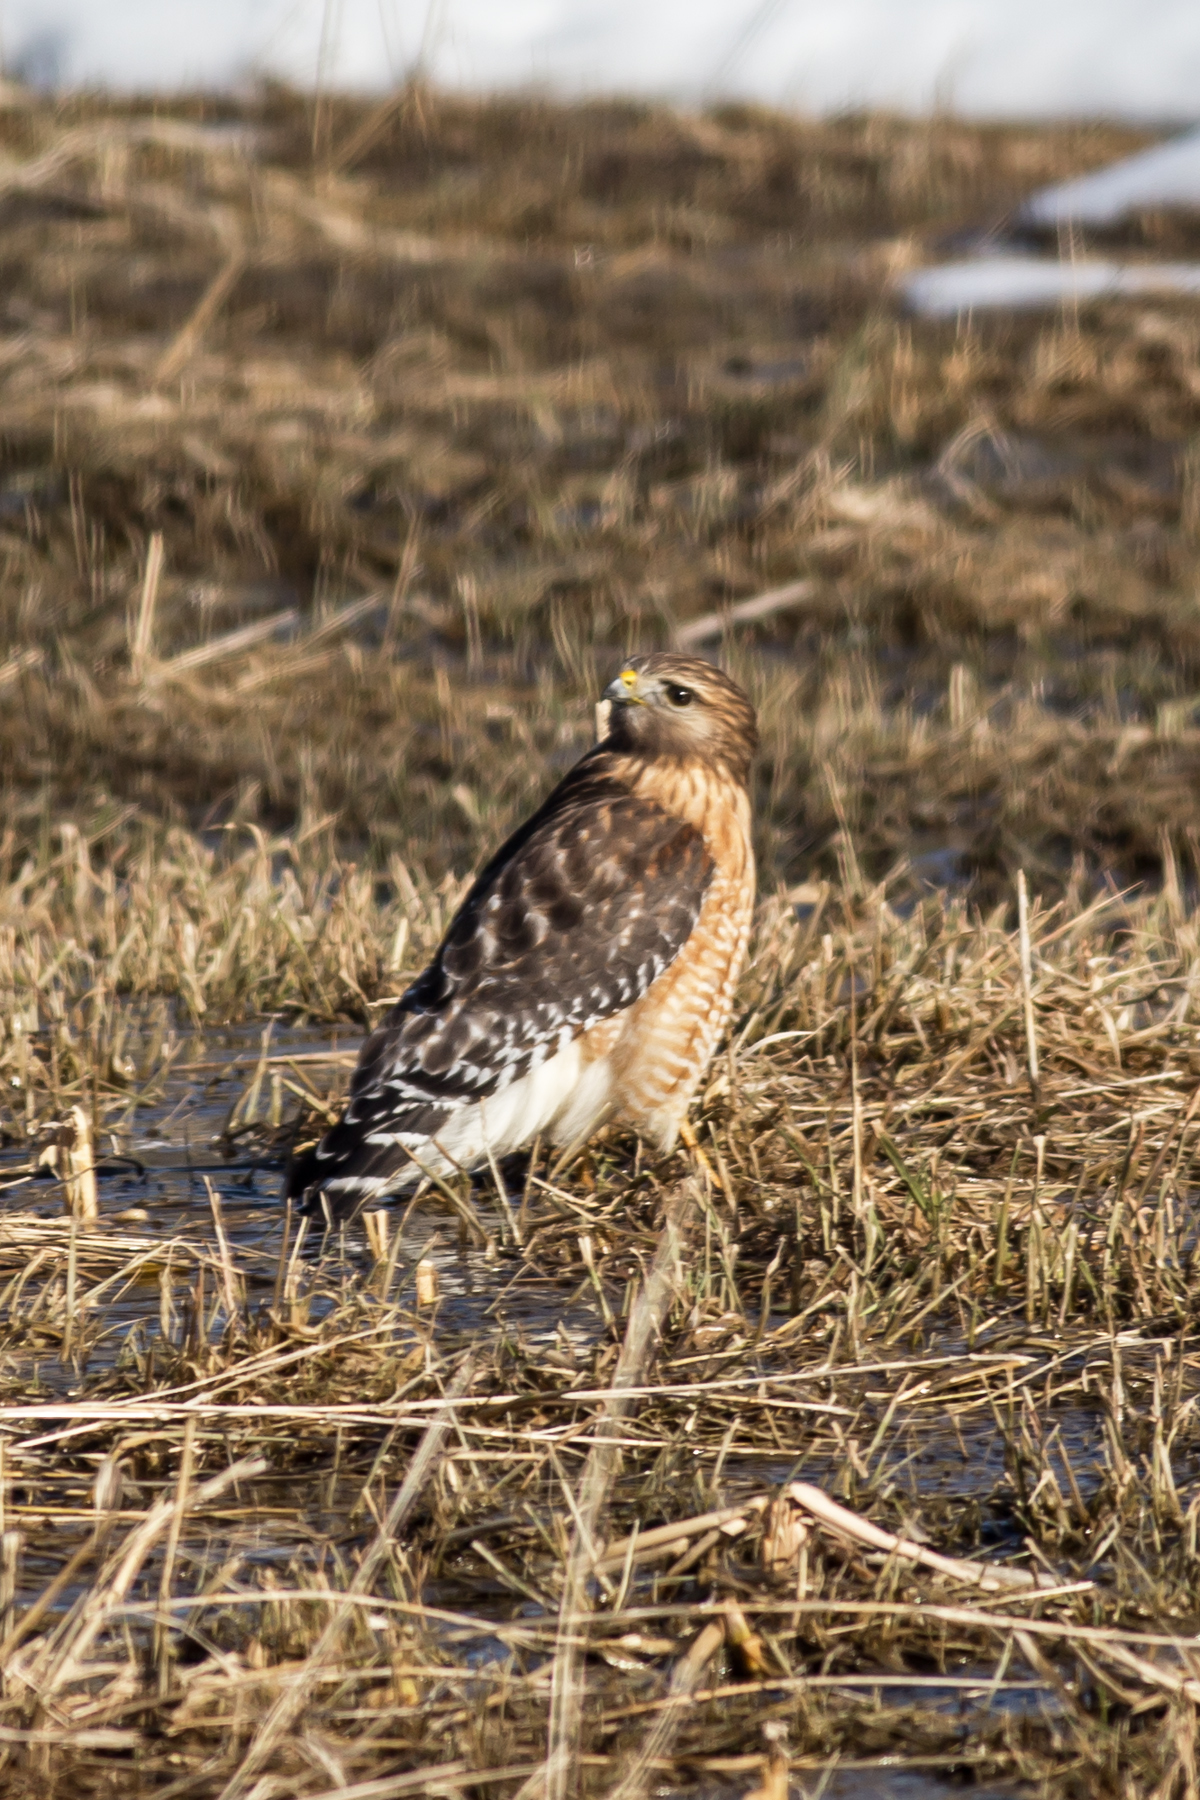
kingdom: Animalia
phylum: Chordata
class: Aves
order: Accipitriformes
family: Accipitridae
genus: Buteo
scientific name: Buteo lineatus
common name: Red-shouldered hawk
